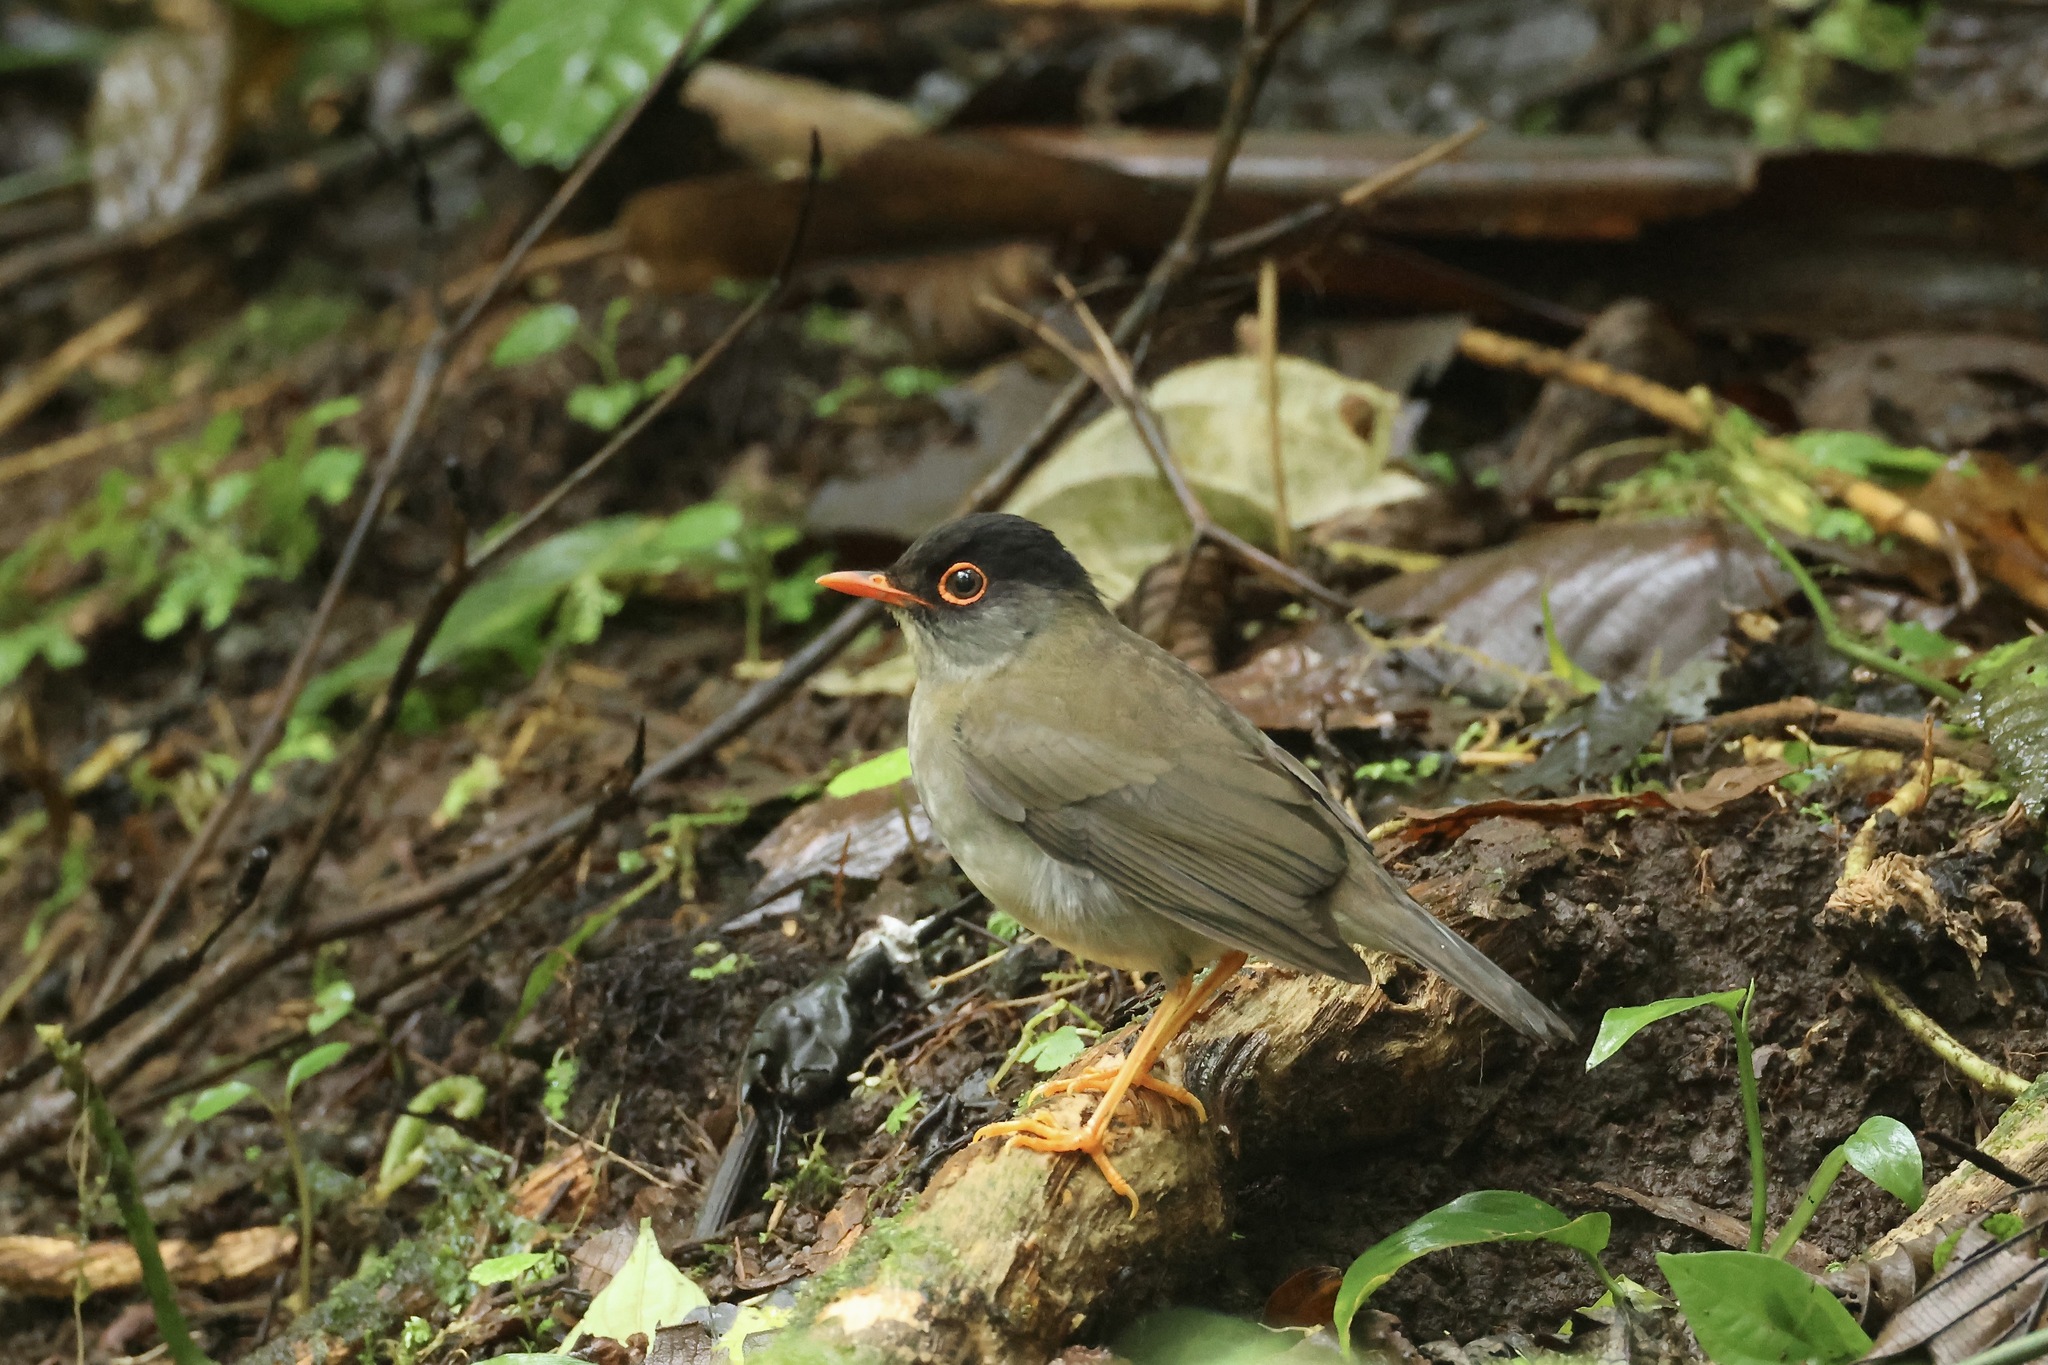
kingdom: Animalia
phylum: Chordata
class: Aves
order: Passeriformes
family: Turdidae
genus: Catharus
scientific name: Catharus mexicanus
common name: Black-headed nightingale-thrush
